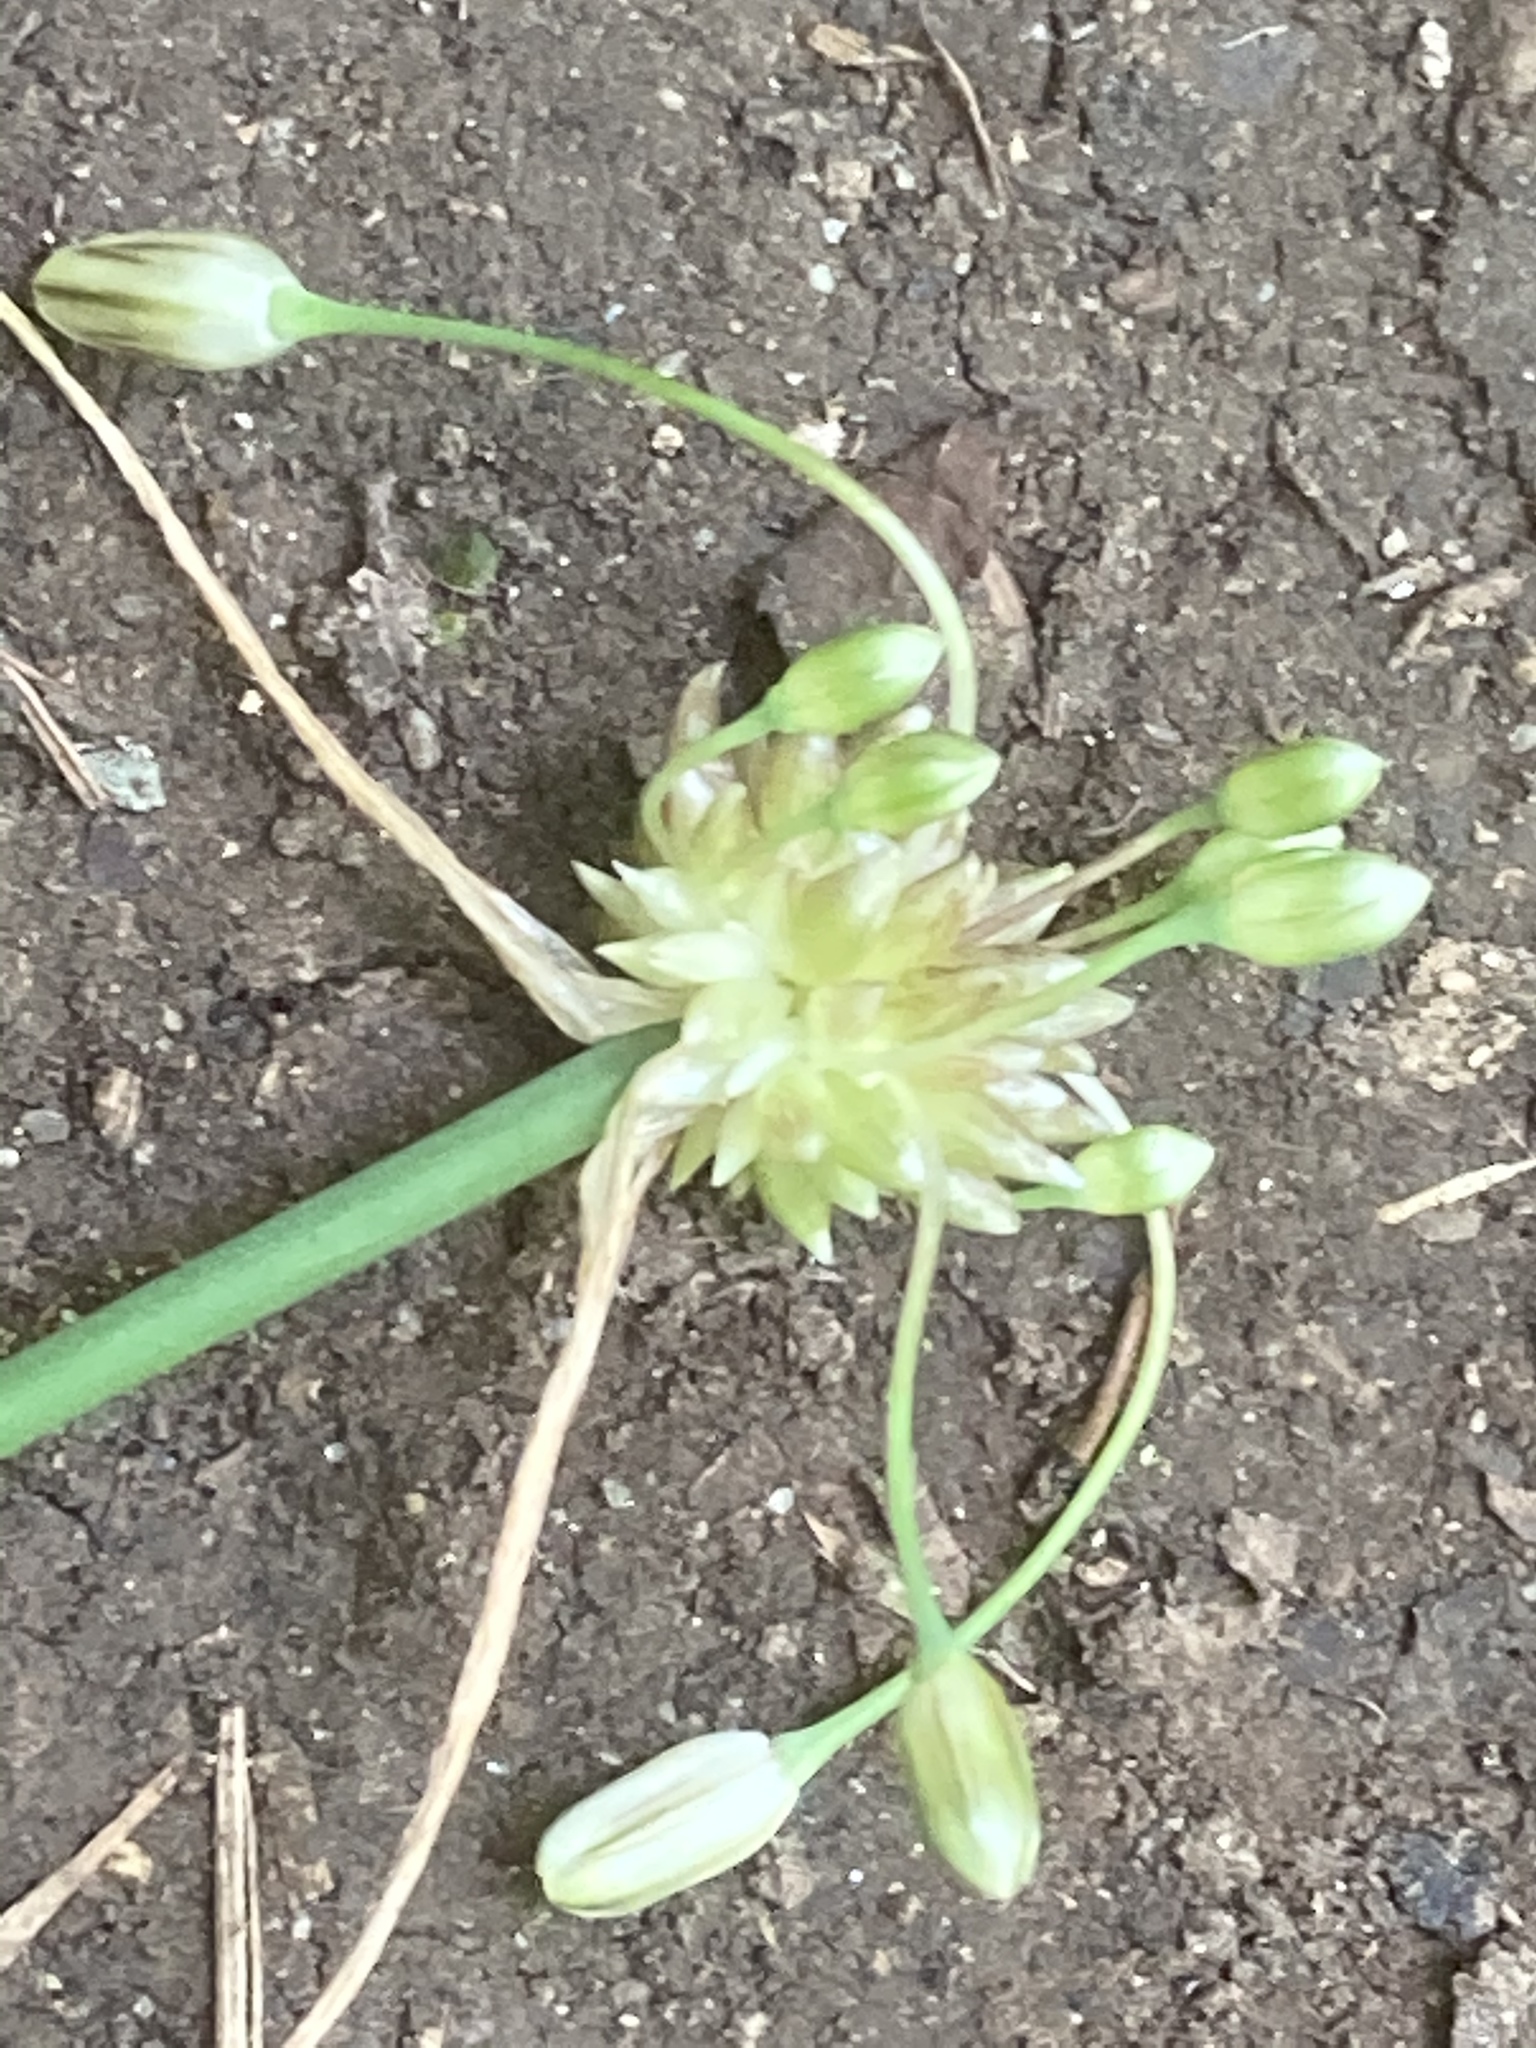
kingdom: Plantae
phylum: Tracheophyta
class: Liliopsida
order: Asparagales
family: Amaryllidaceae
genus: Allium
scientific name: Allium oleraceum
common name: Field garlic
